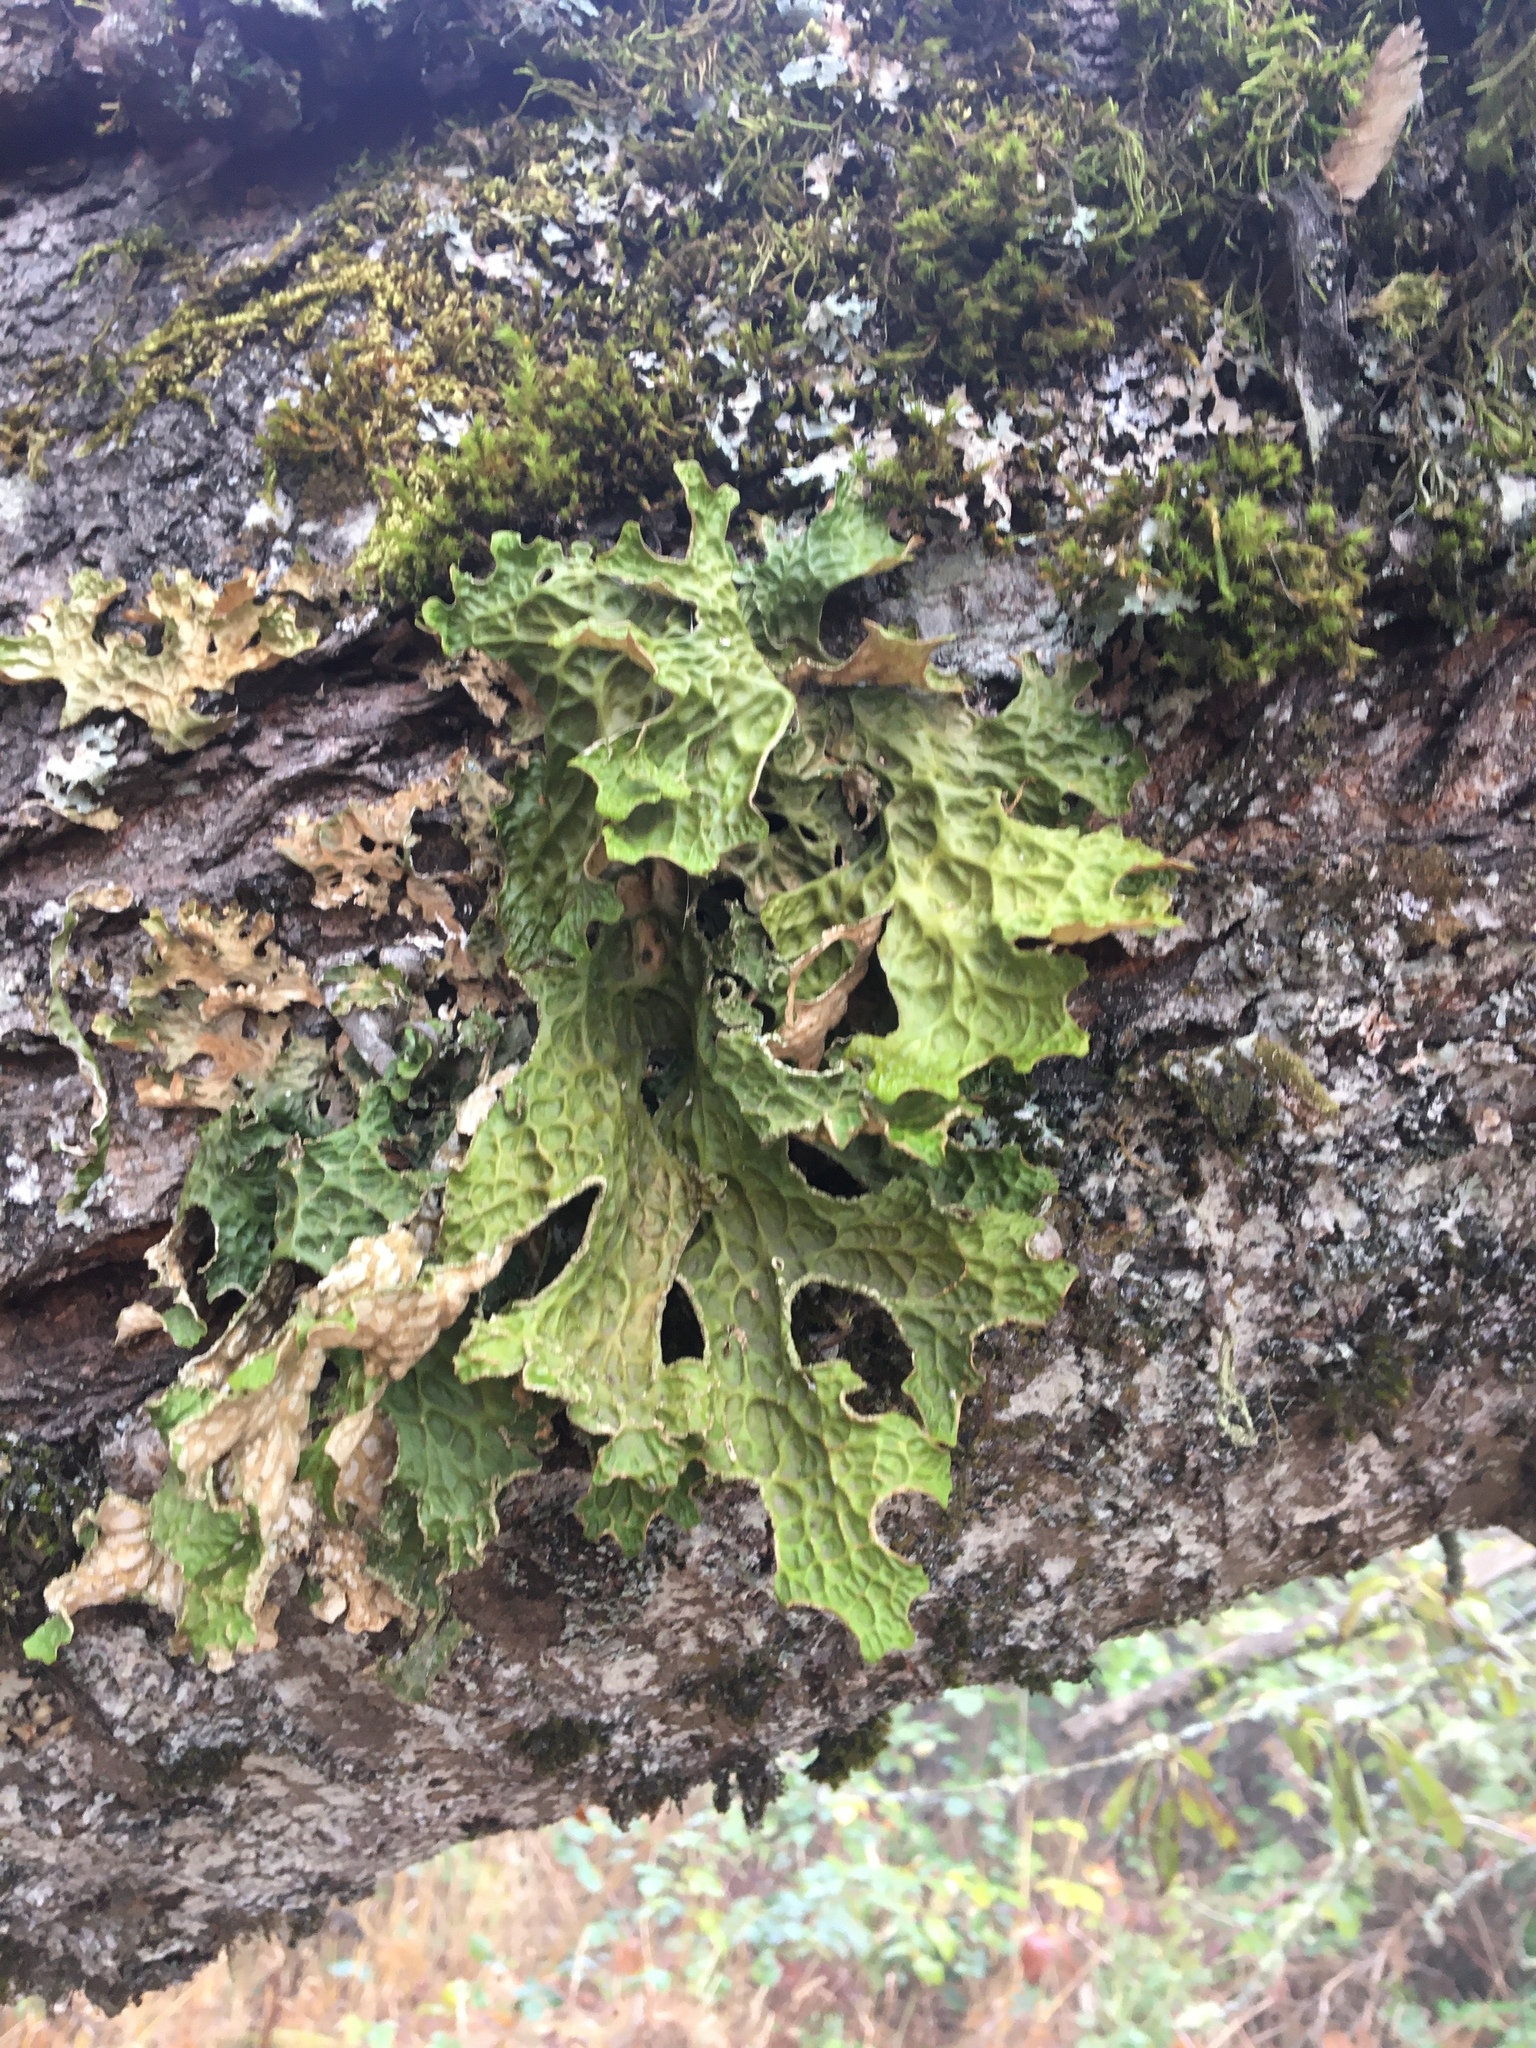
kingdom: Fungi
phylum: Ascomycota
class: Lecanoromycetes
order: Peltigerales
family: Lobariaceae
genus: Lobaria
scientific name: Lobaria pulmonaria
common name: Lungwort
